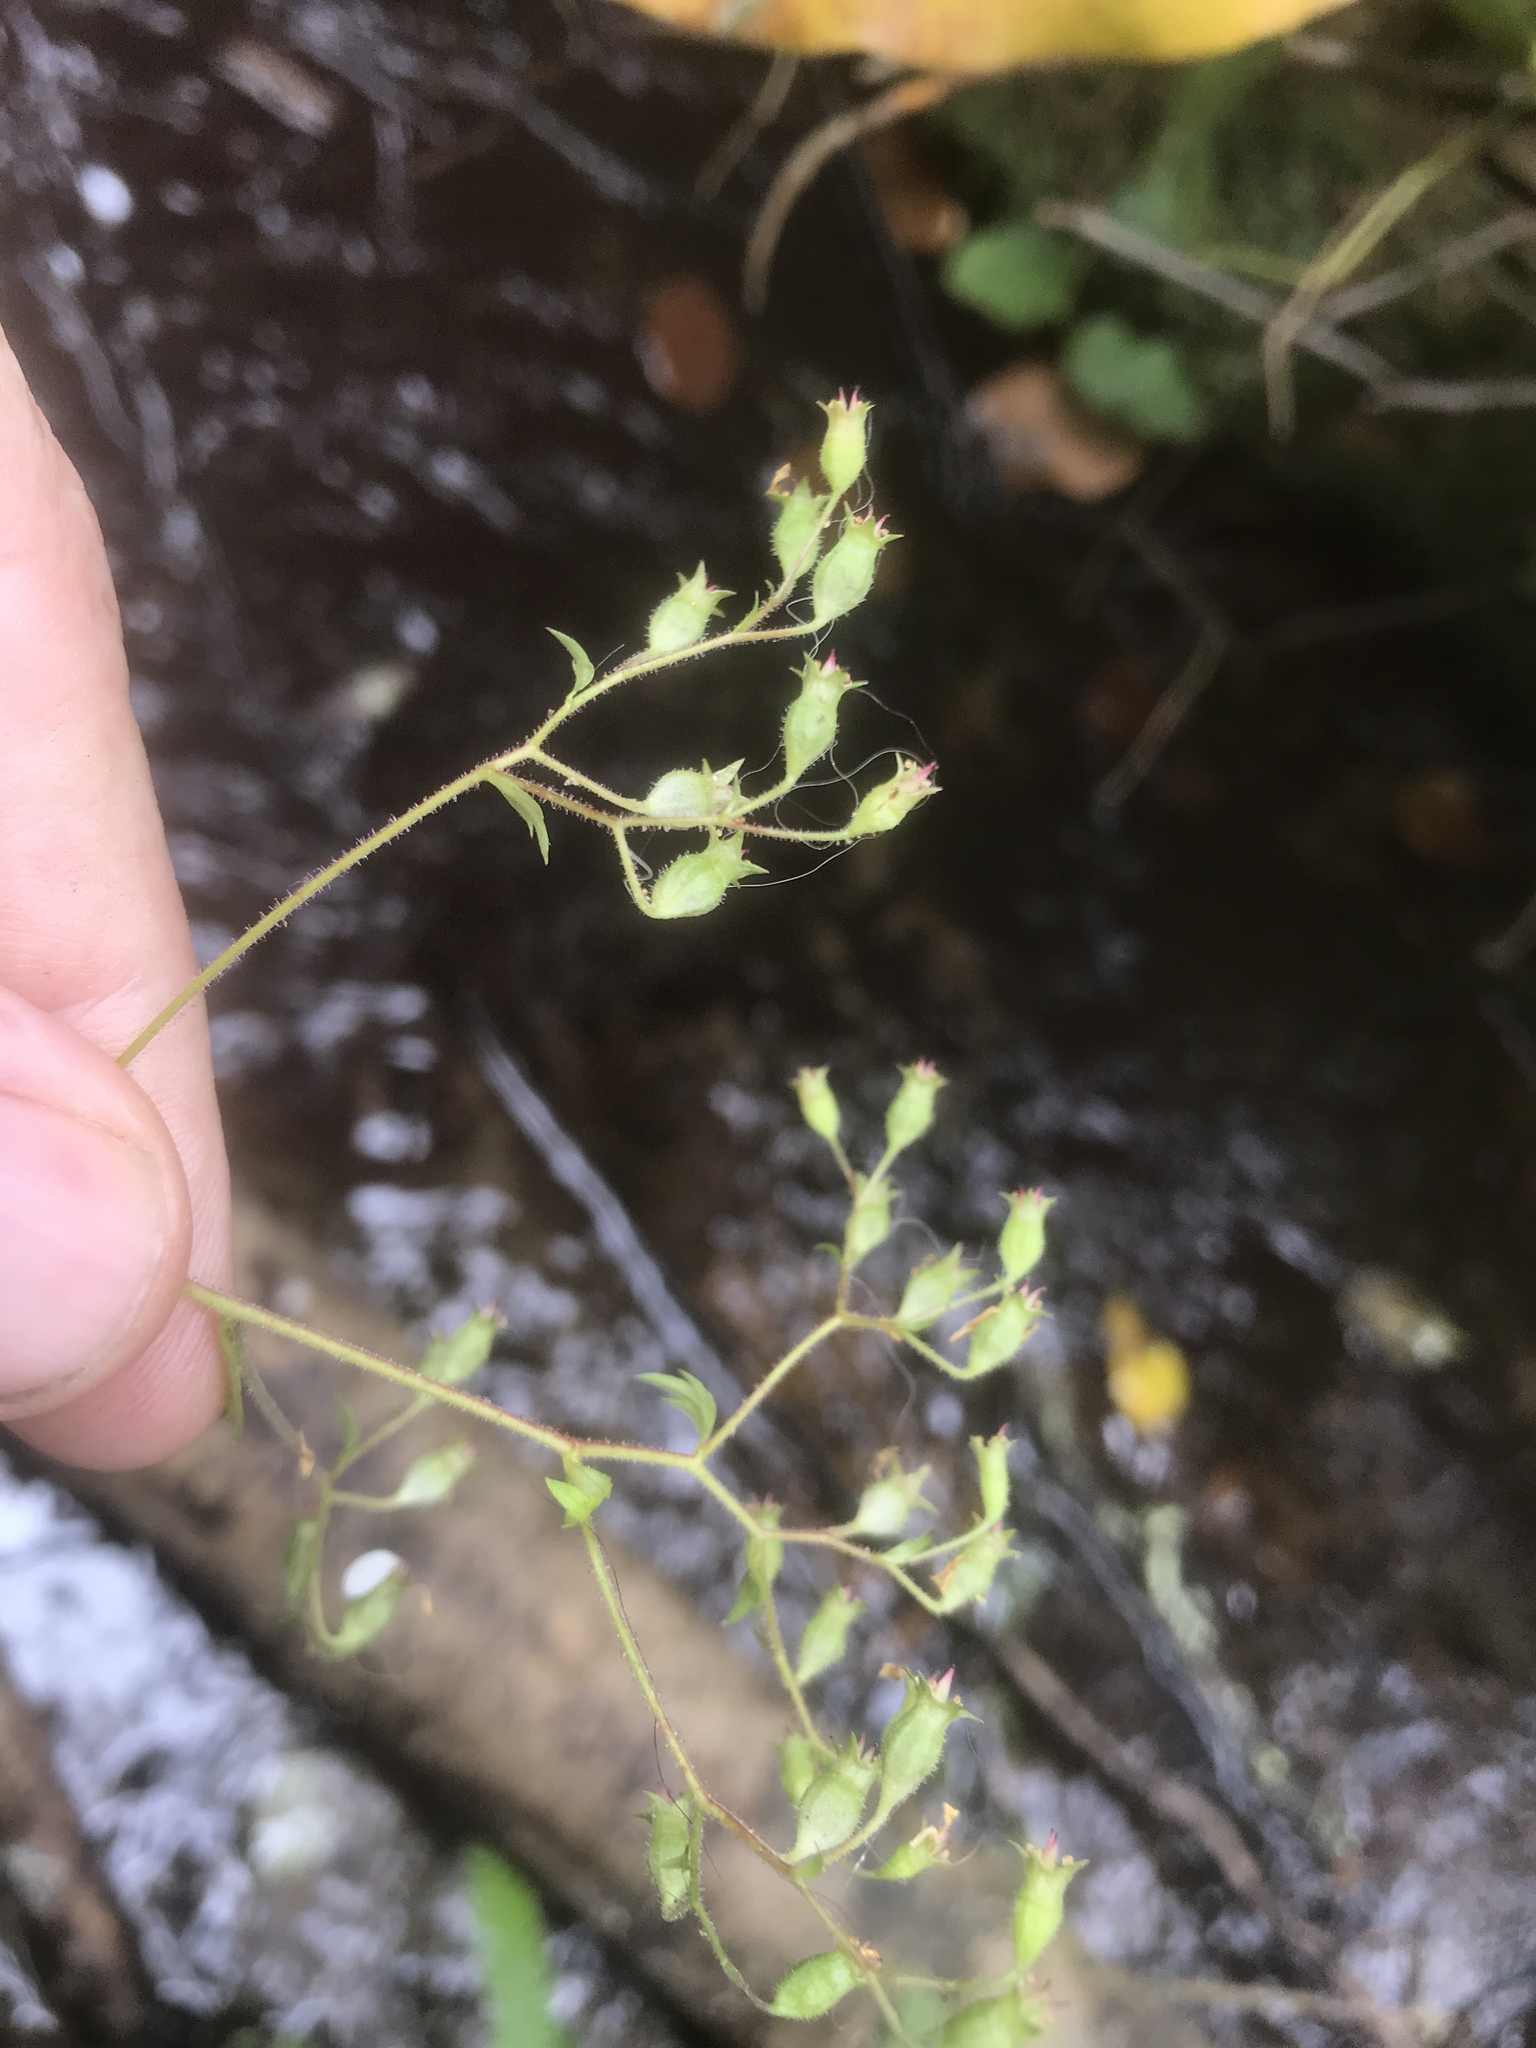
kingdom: Plantae
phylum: Tracheophyta
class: Magnoliopsida
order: Saxifragales
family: Saxifragaceae
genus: Boykinia
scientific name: Boykinia occidentalis
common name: Coast boykinia
